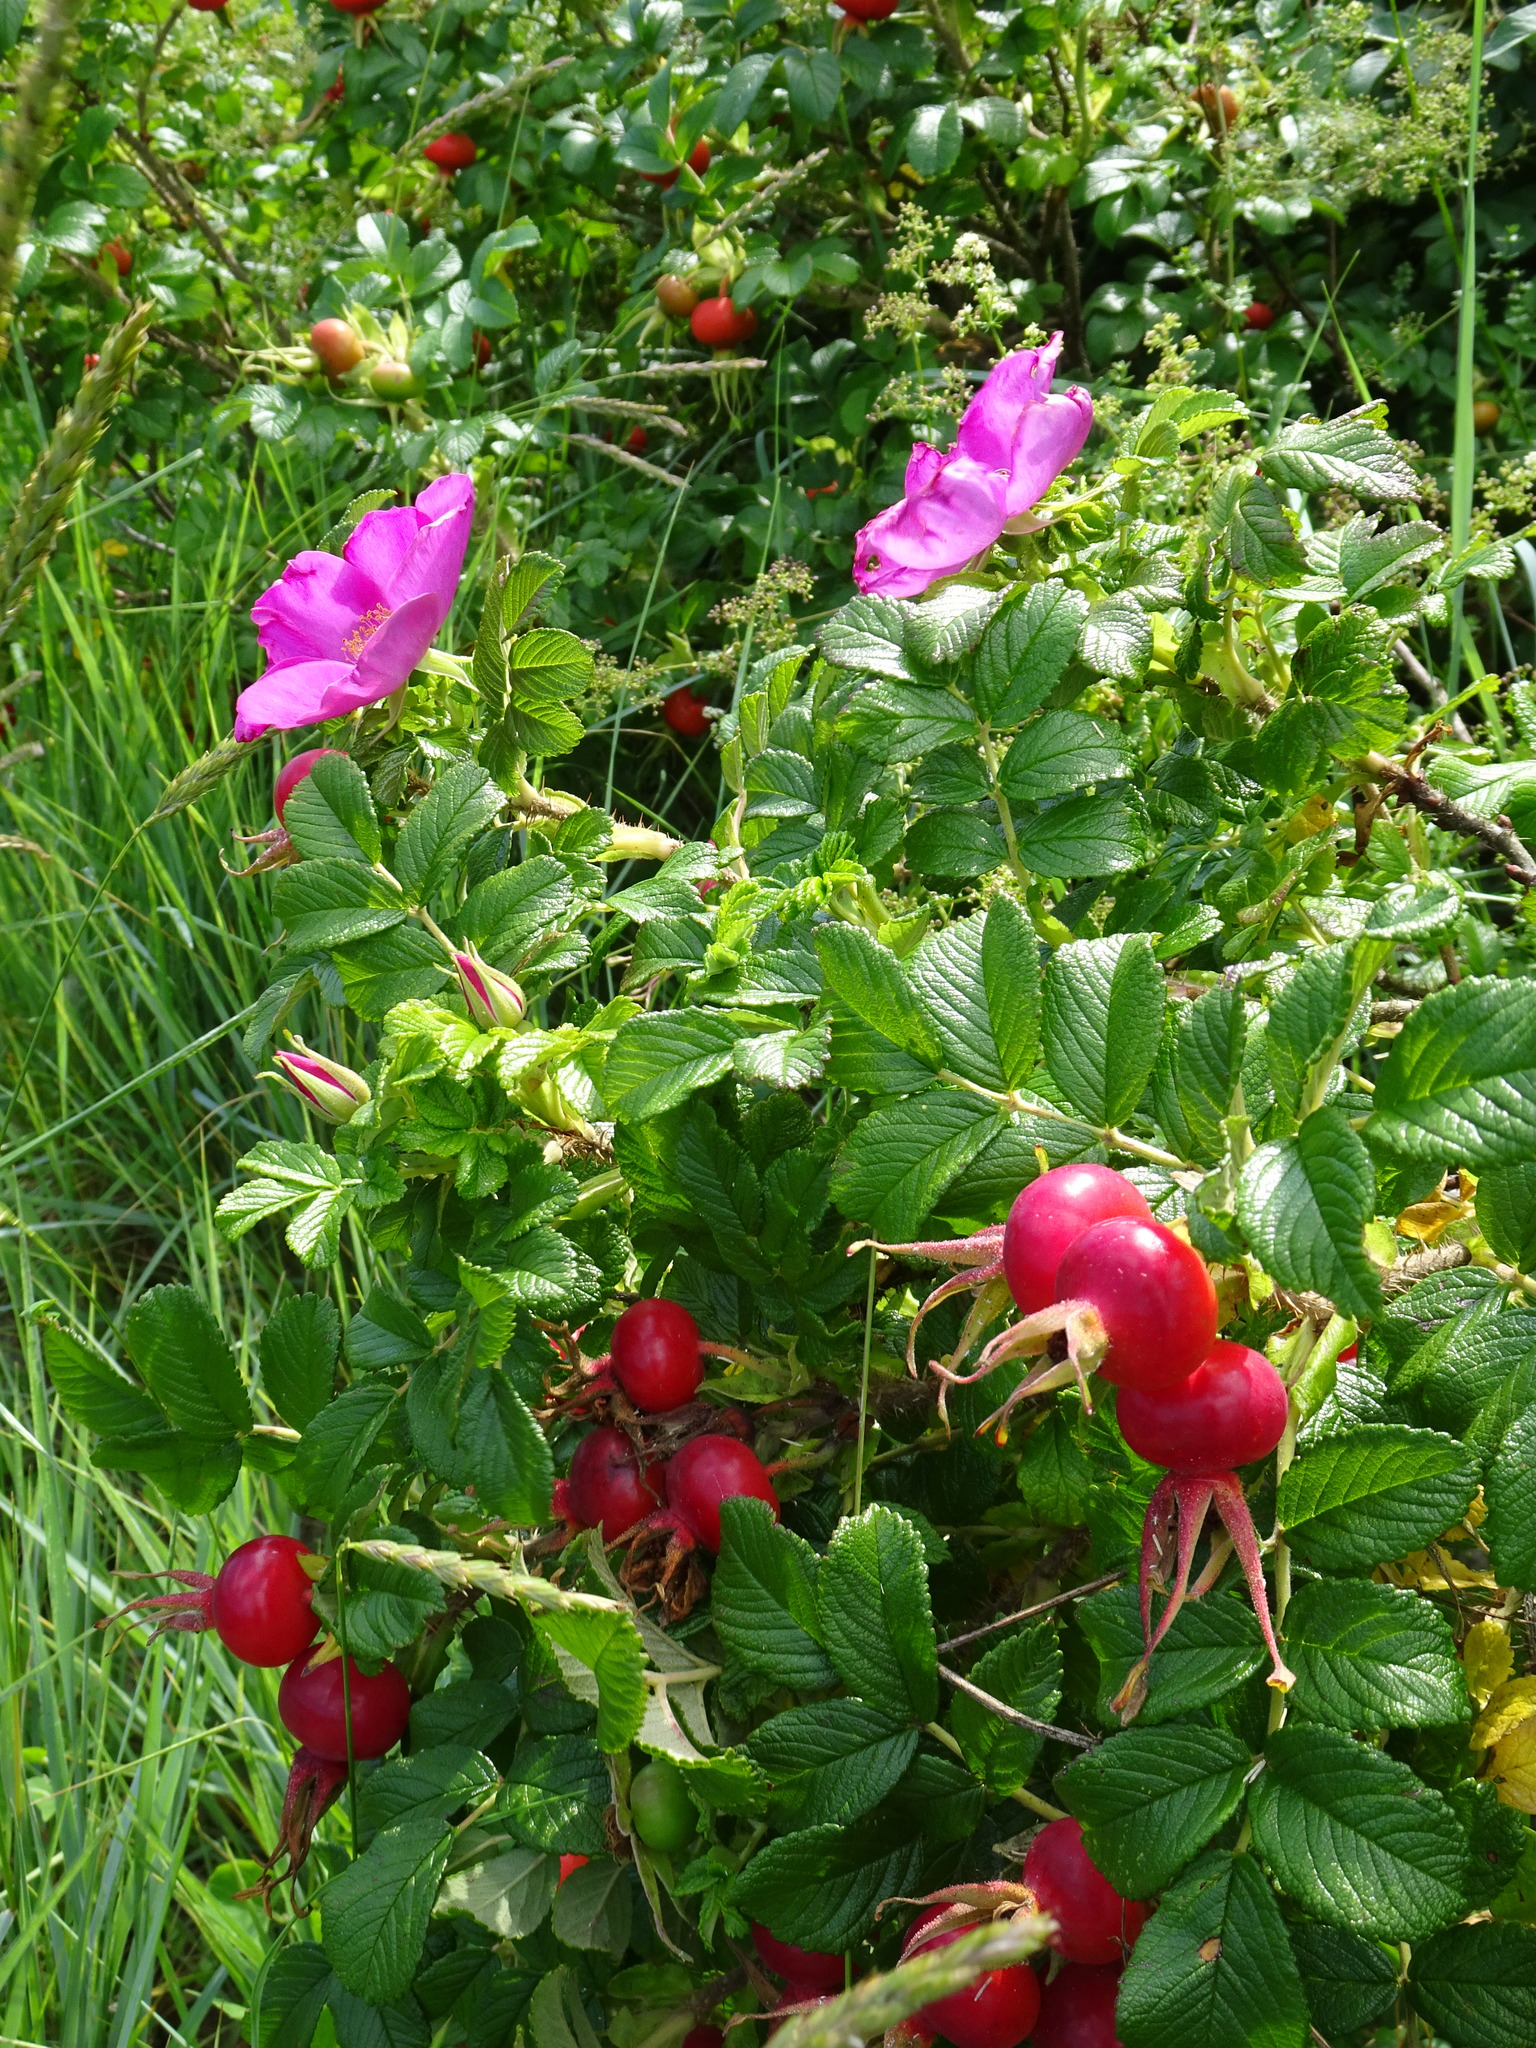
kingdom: Plantae
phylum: Tracheophyta
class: Magnoliopsida
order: Rosales
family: Rosaceae
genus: Rosa
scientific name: Rosa rugosa
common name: Japanese rose
